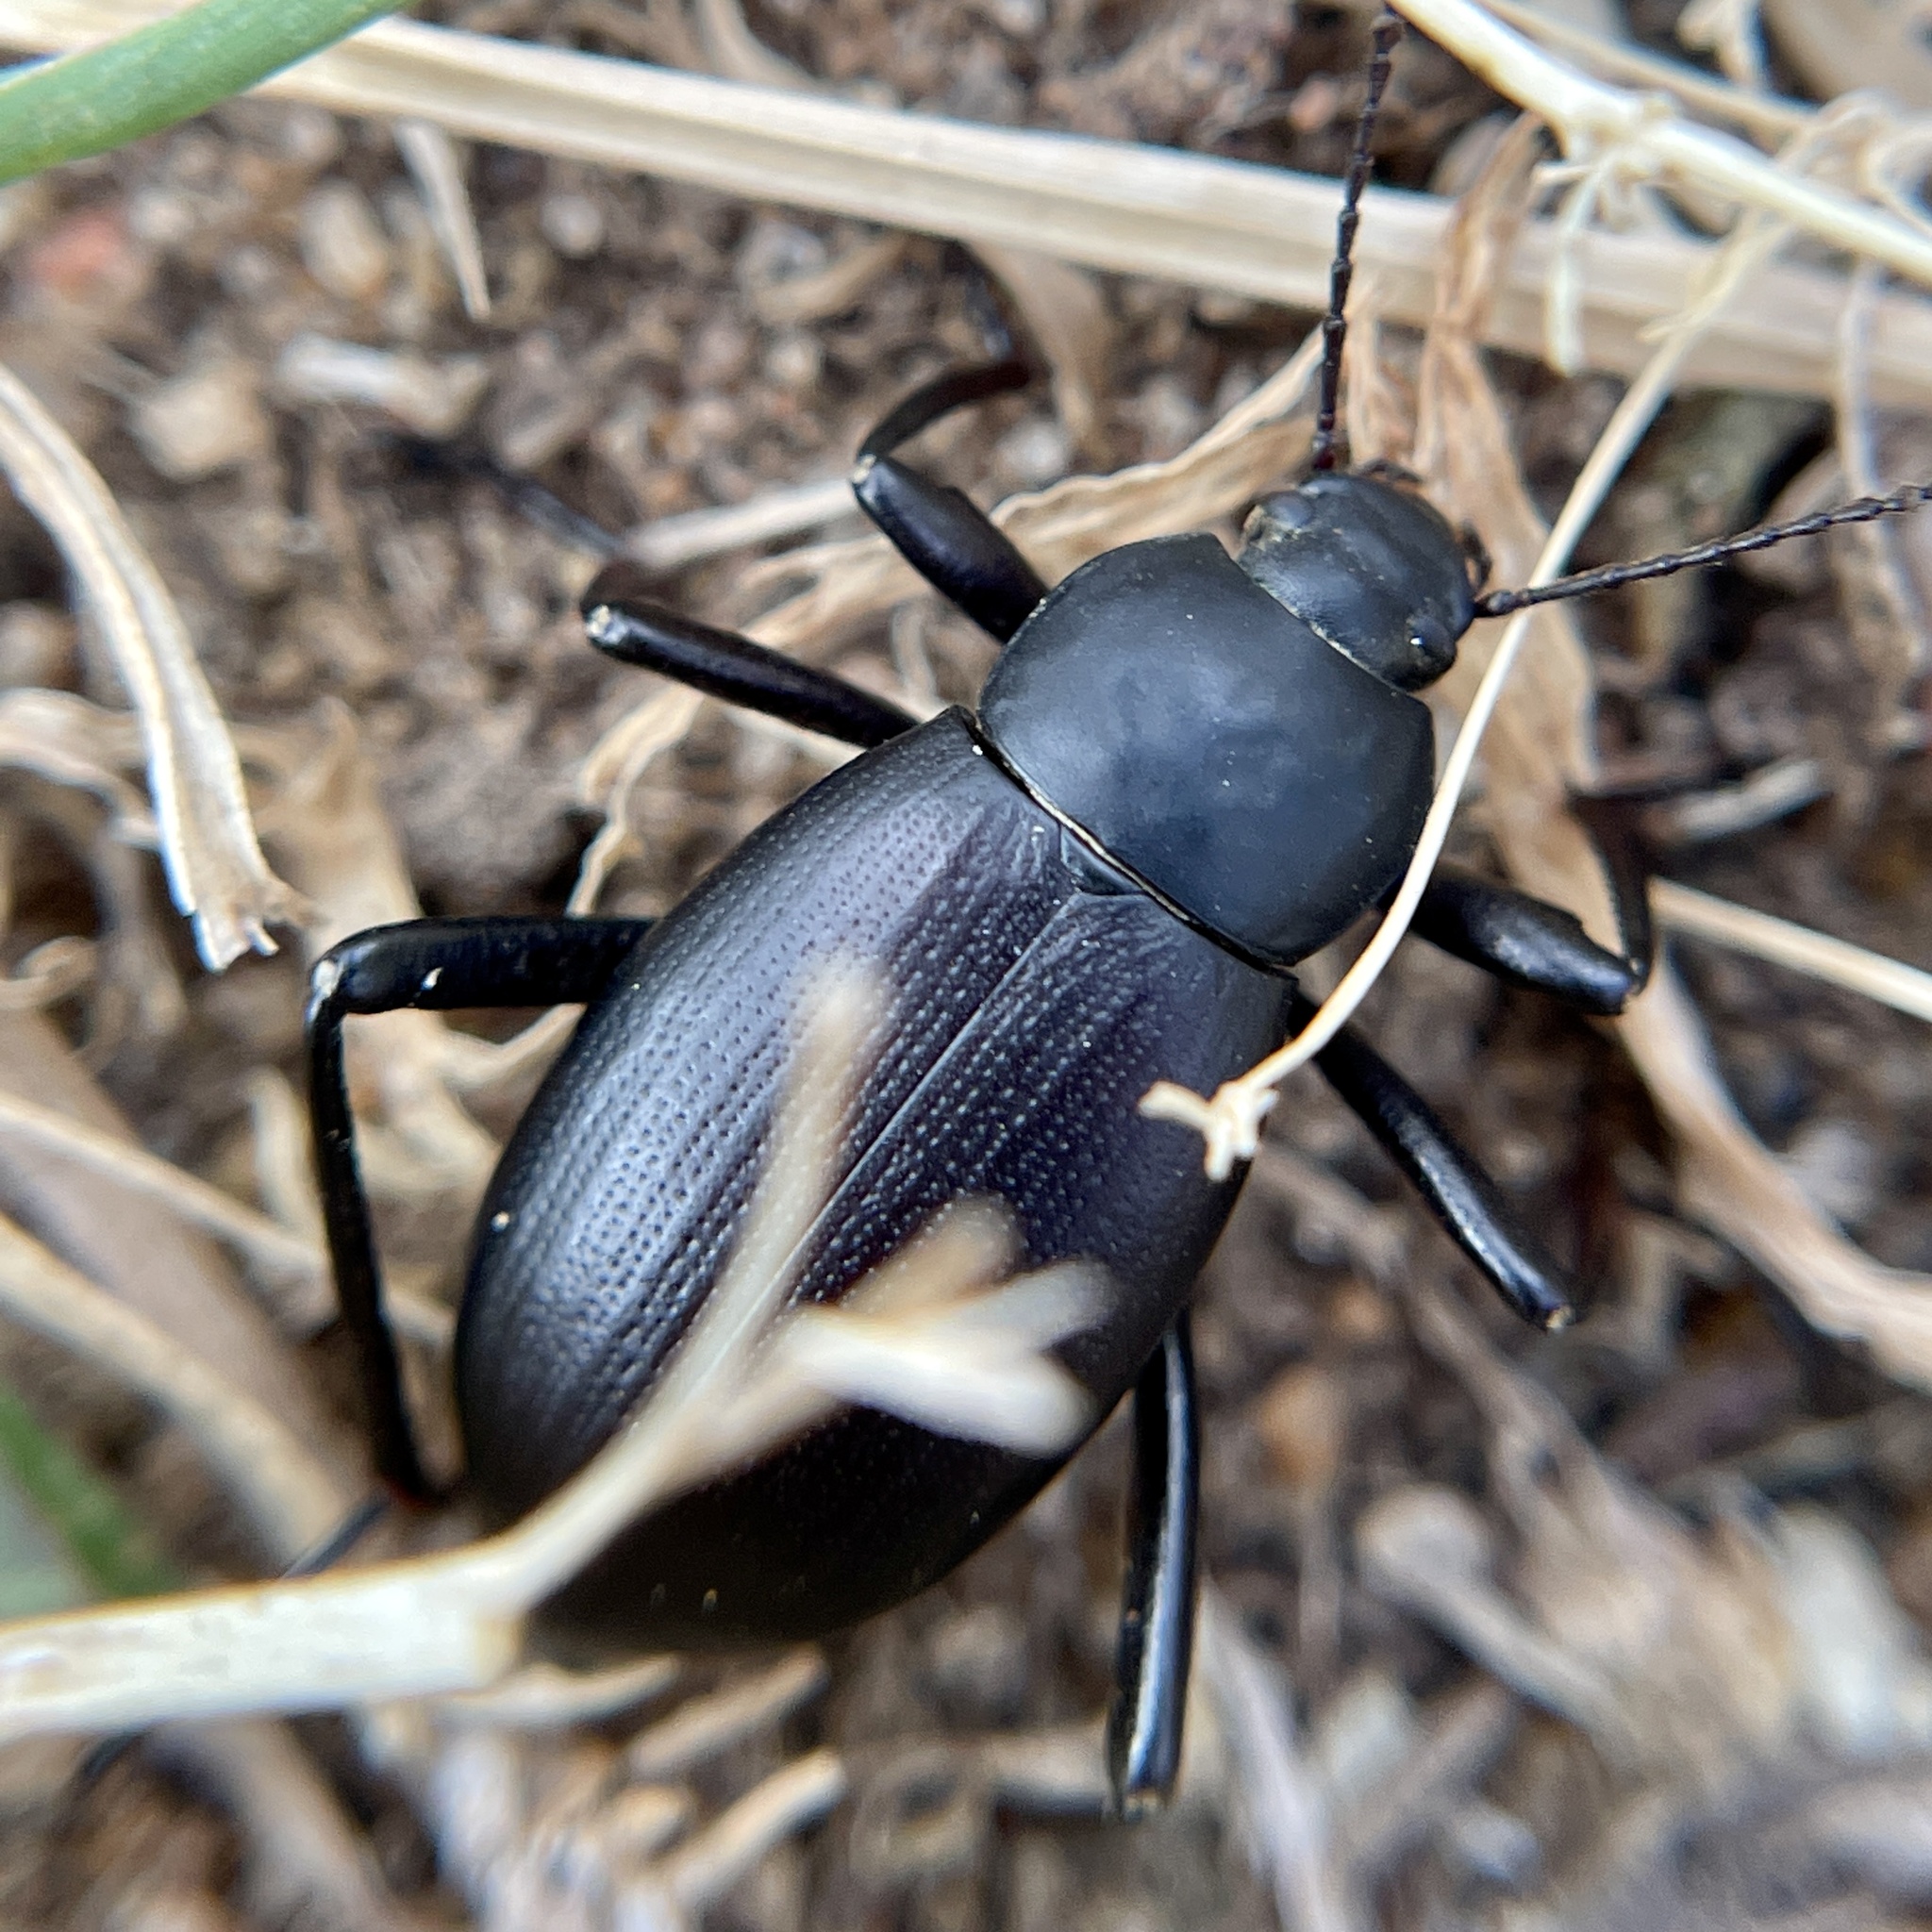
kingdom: Animalia
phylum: Arthropoda
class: Insecta
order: Coleoptera
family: Tenebrionidae
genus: Eleodes
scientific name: Eleodes striolata
